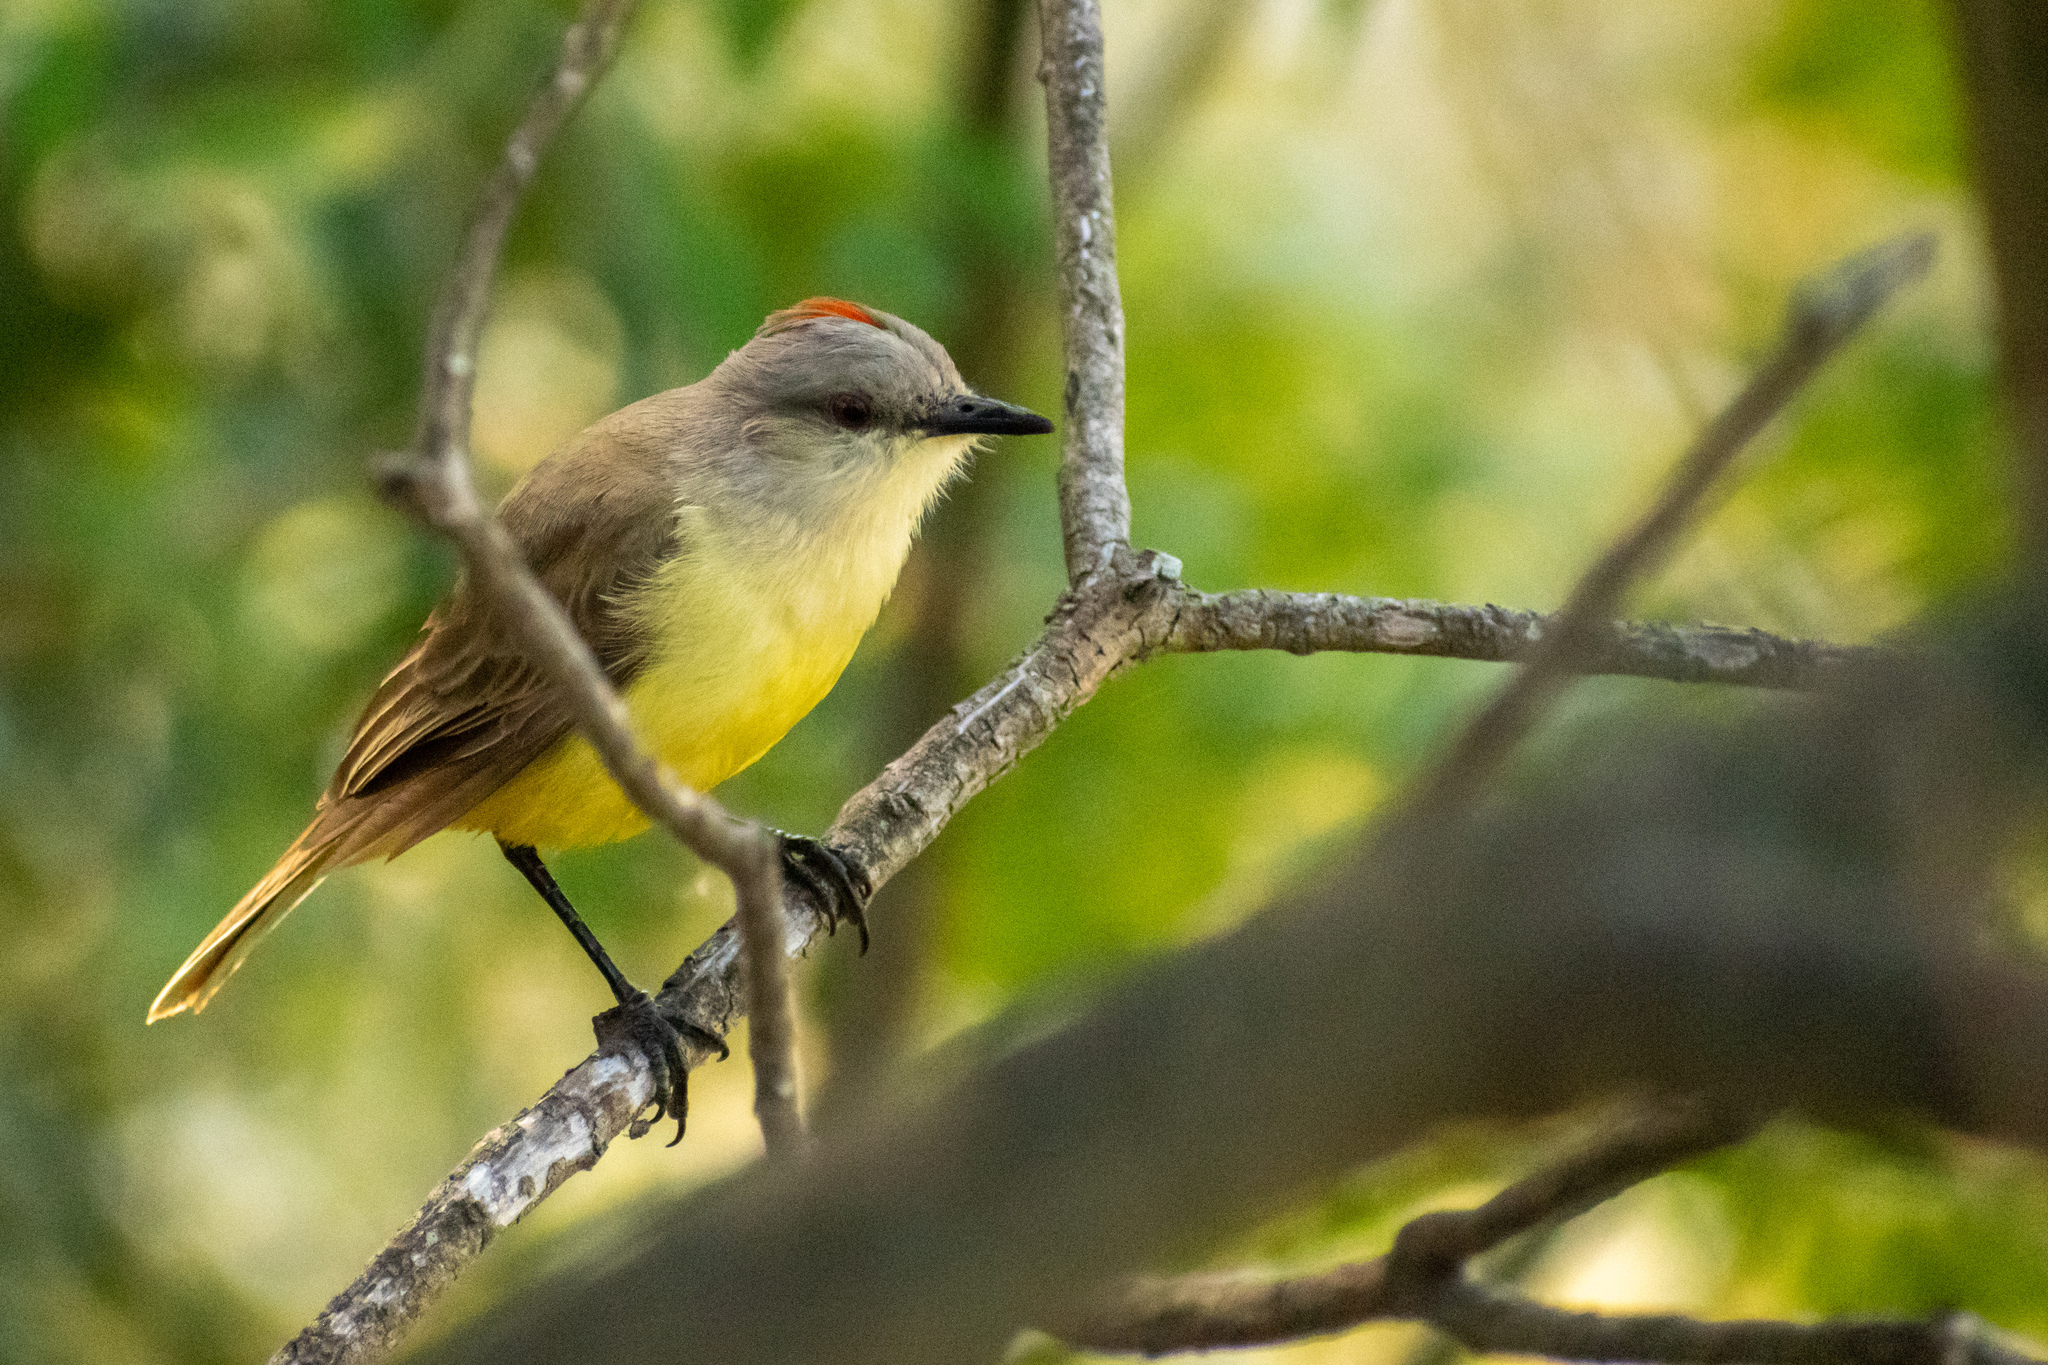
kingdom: Animalia
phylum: Chordata
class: Aves
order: Passeriformes
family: Tyrannidae
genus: Machetornis
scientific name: Machetornis rixosa
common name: Cattle tyrant
